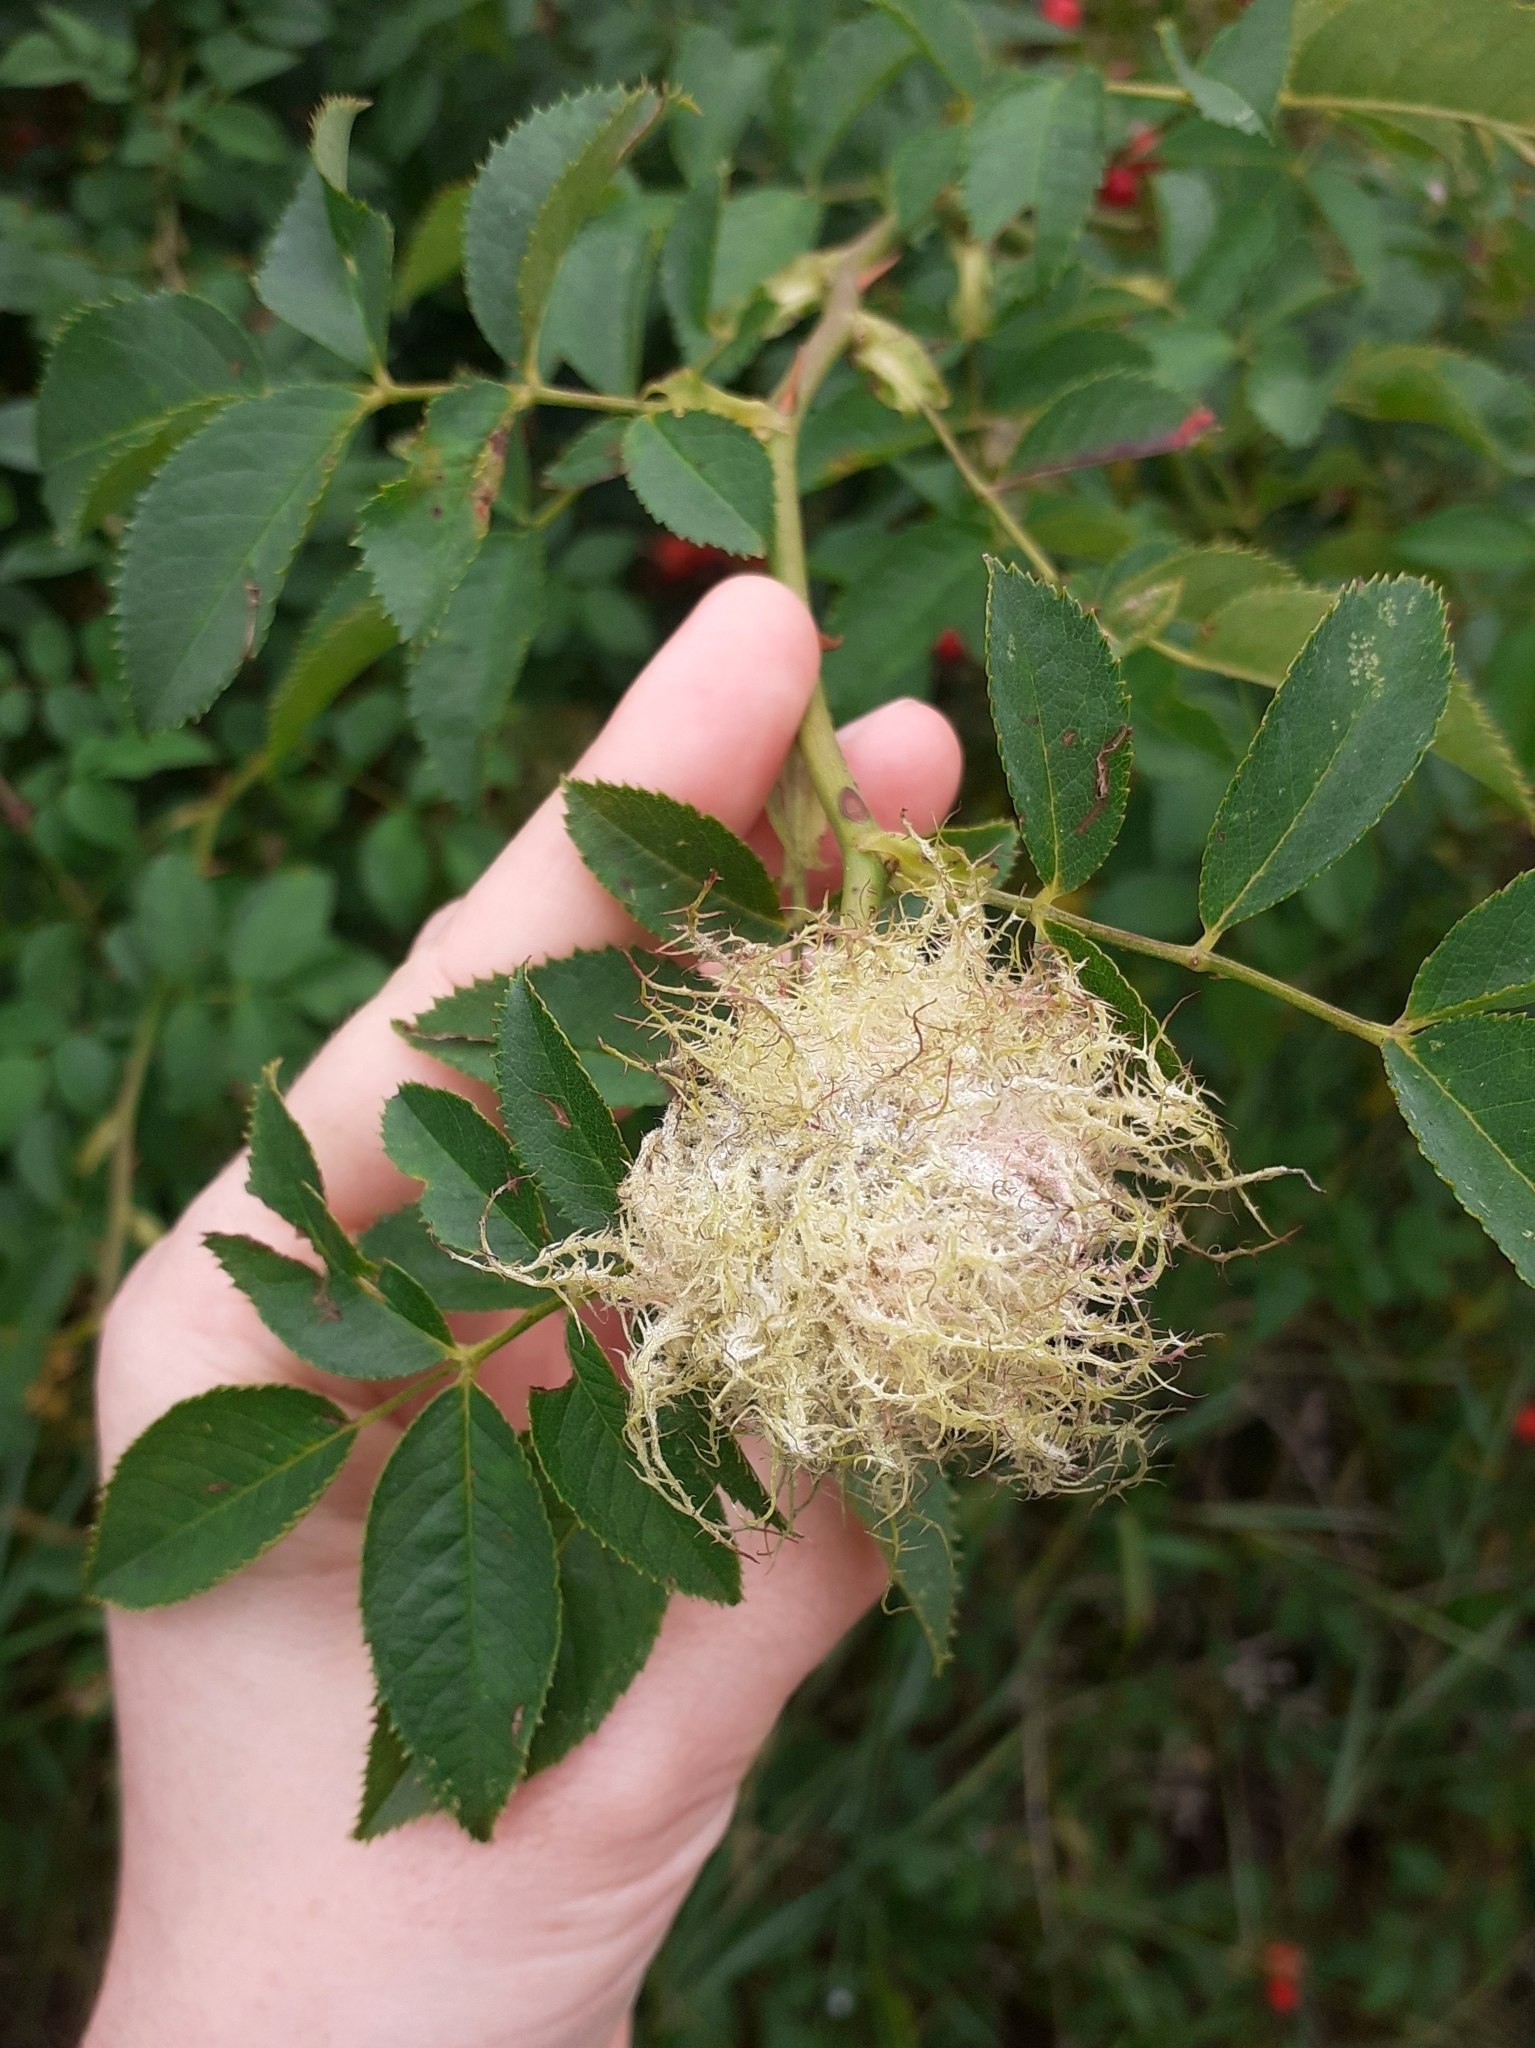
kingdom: Animalia
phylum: Arthropoda
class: Insecta
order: Hymenoptera
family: Cynipidae
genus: Diplolepis
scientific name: Diplolepis rosae
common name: Bedeguar gall
